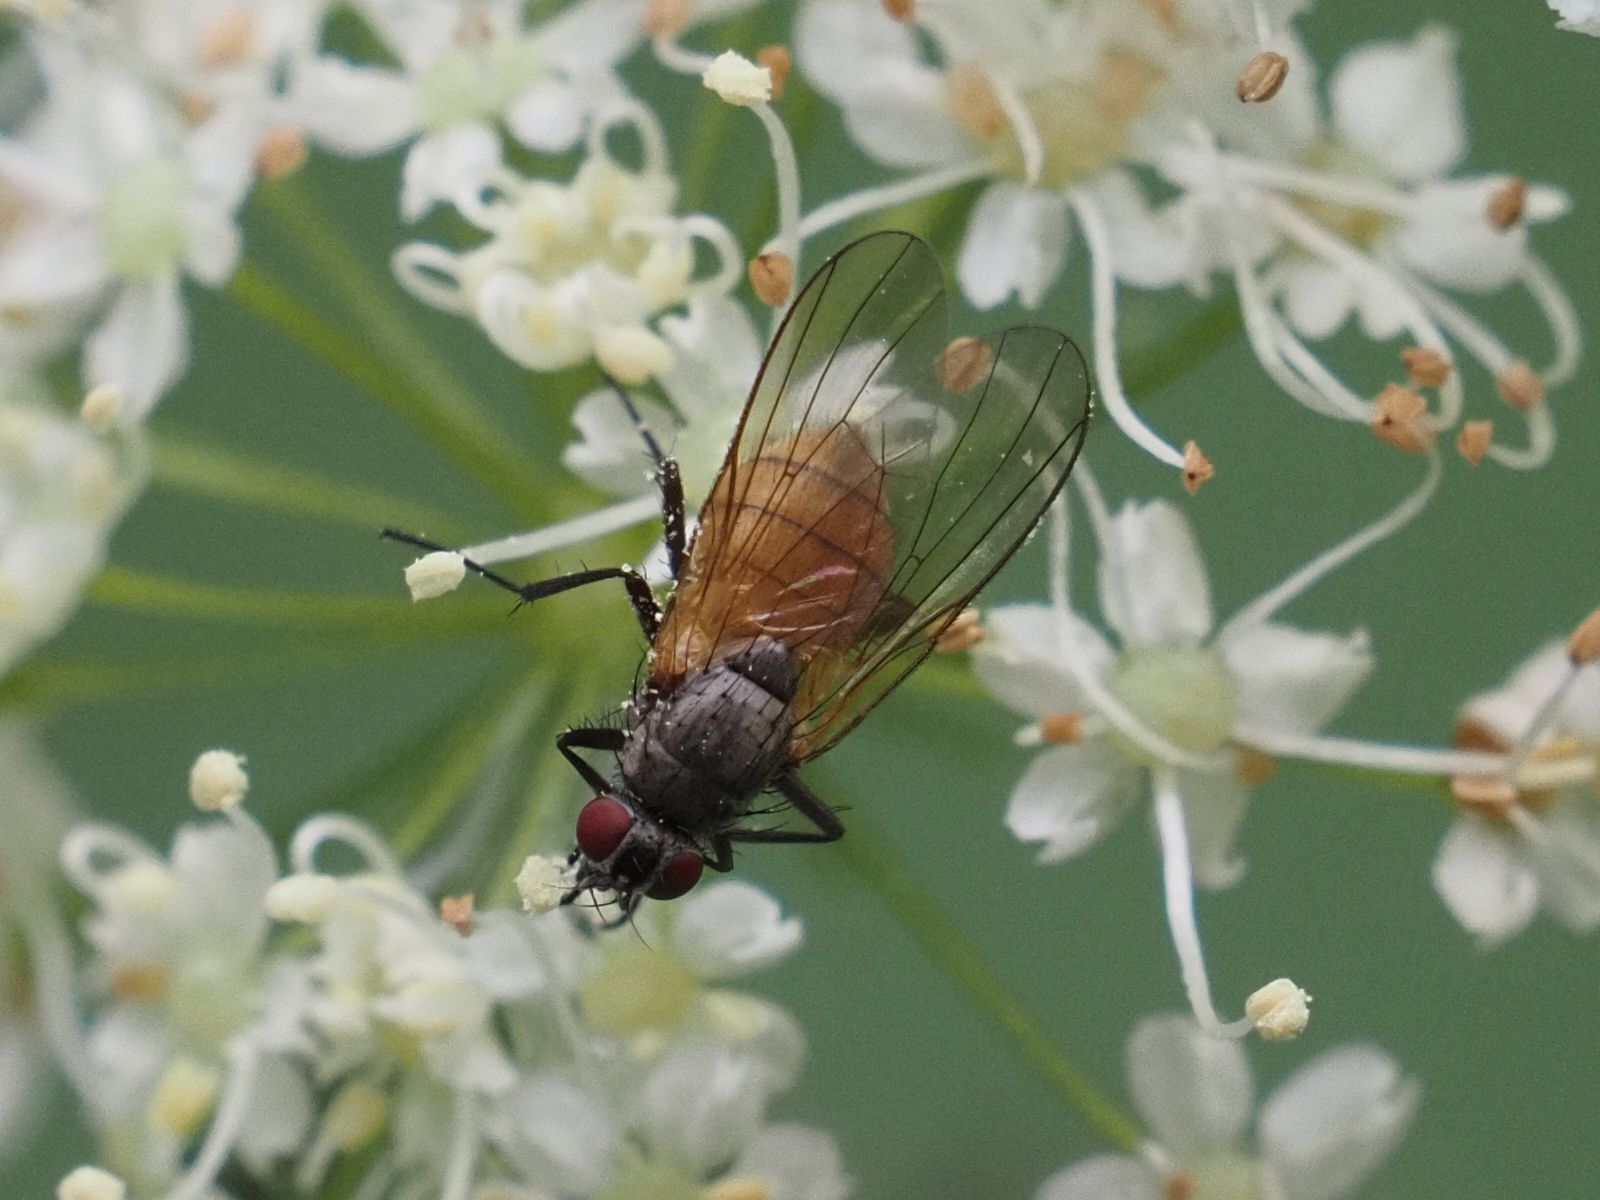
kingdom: Animalia
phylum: Arthropoda
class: Insecta
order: Diptera
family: Muscidae
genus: Thricops
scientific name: Thricops semicinereus
